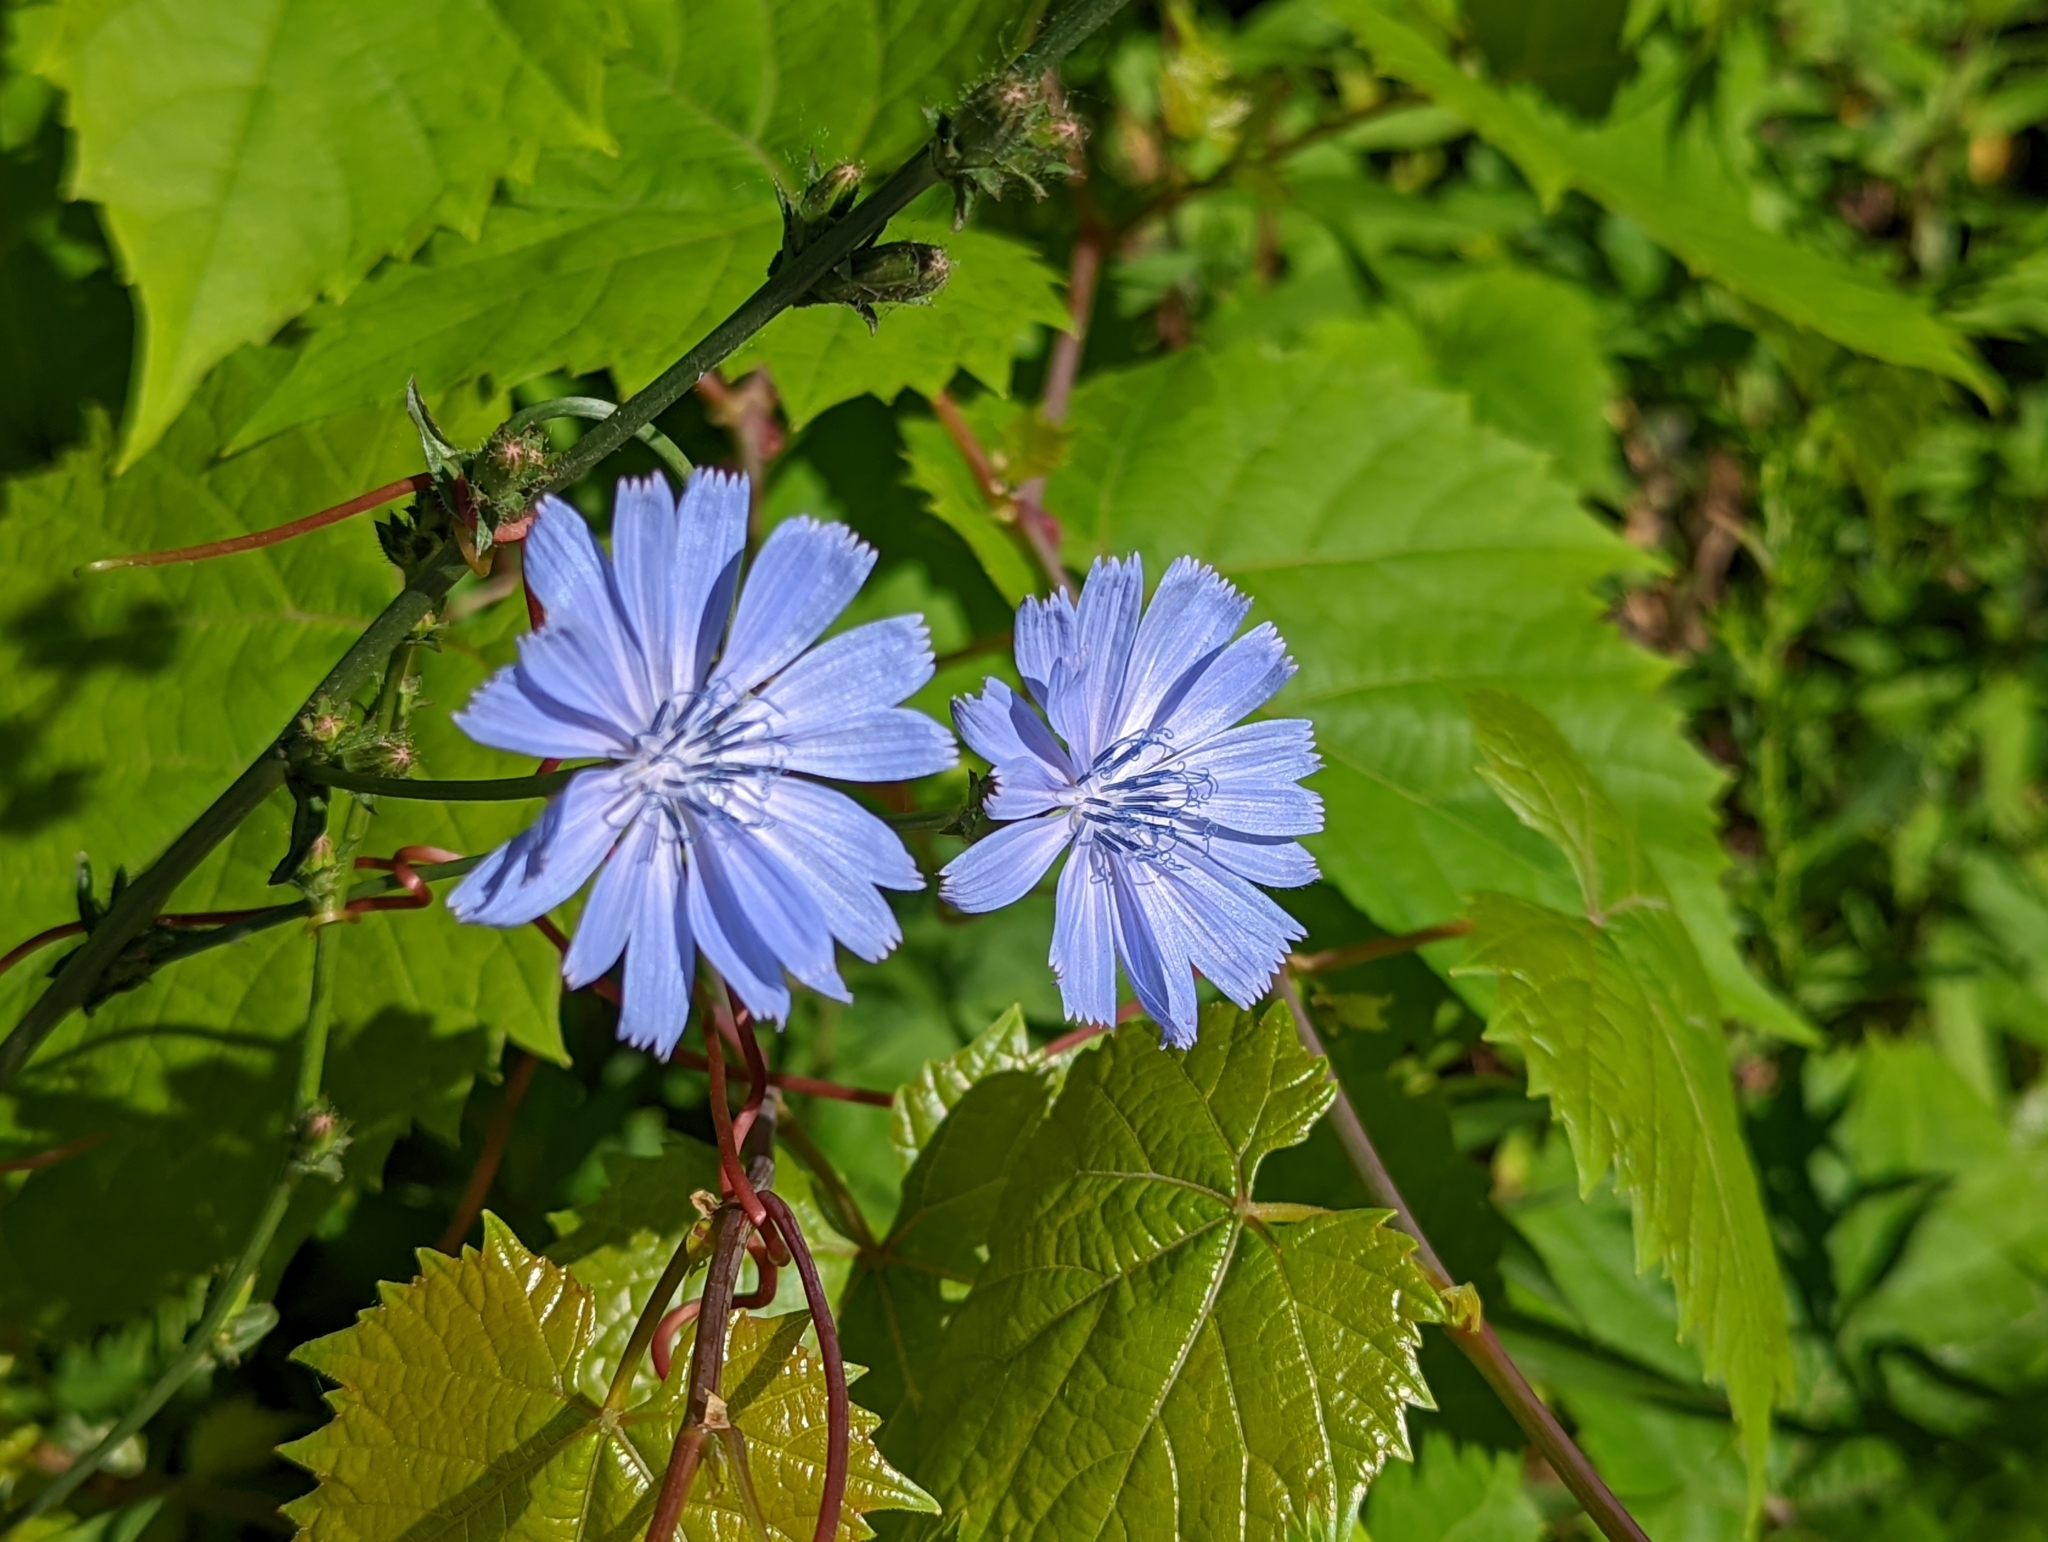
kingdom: Plantae
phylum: Tracheophyta
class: Magnoliopsida
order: Asterales
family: Asteraceae
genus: Cichorium
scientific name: Cichorium intybus
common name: Chicory
